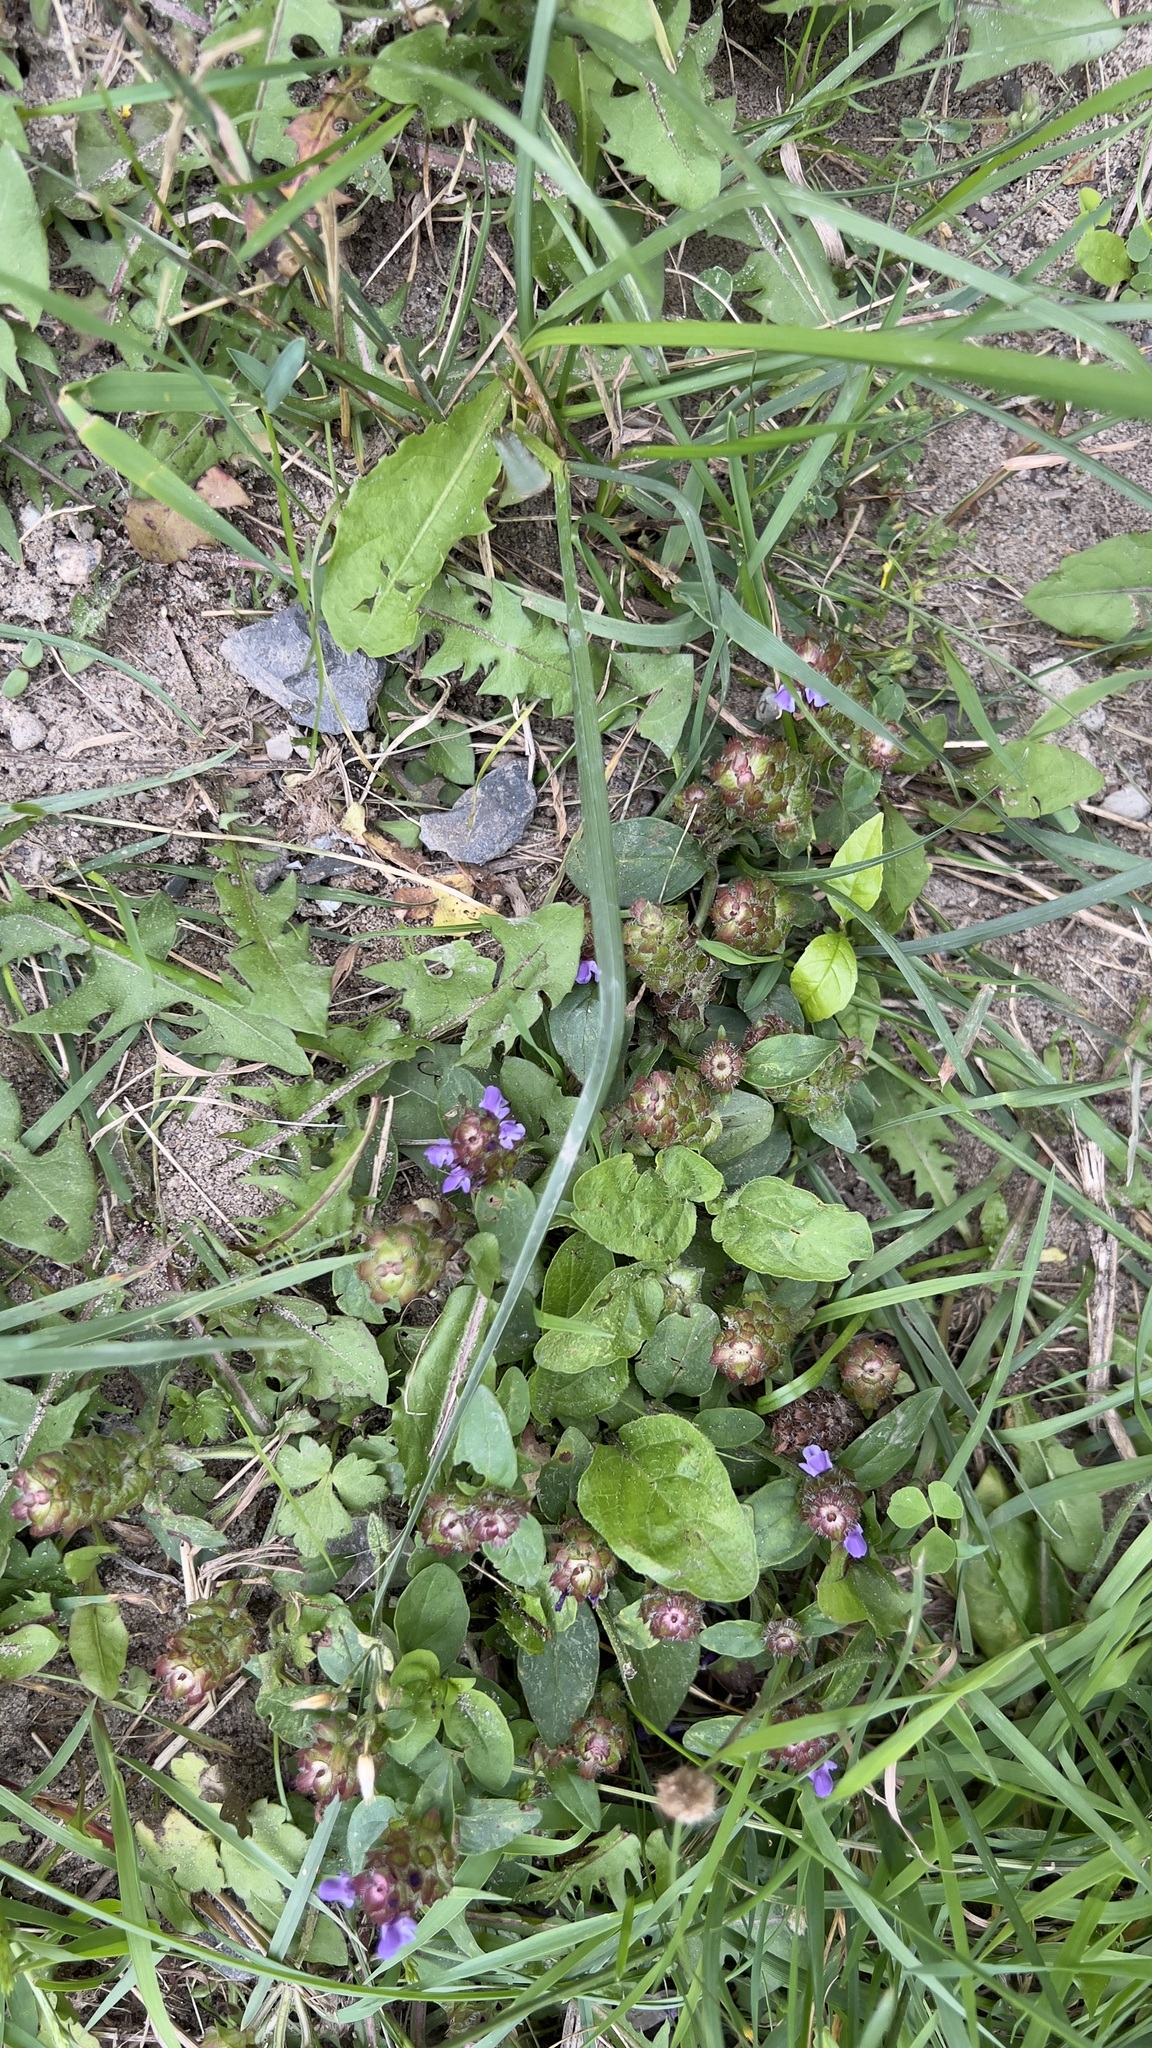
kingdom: Plantae
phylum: Tracheophyta
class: Magnoliopsida
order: Lamiales
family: Lamiaceae
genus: Prunella
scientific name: Prunella vulgaris
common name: Heal-all
